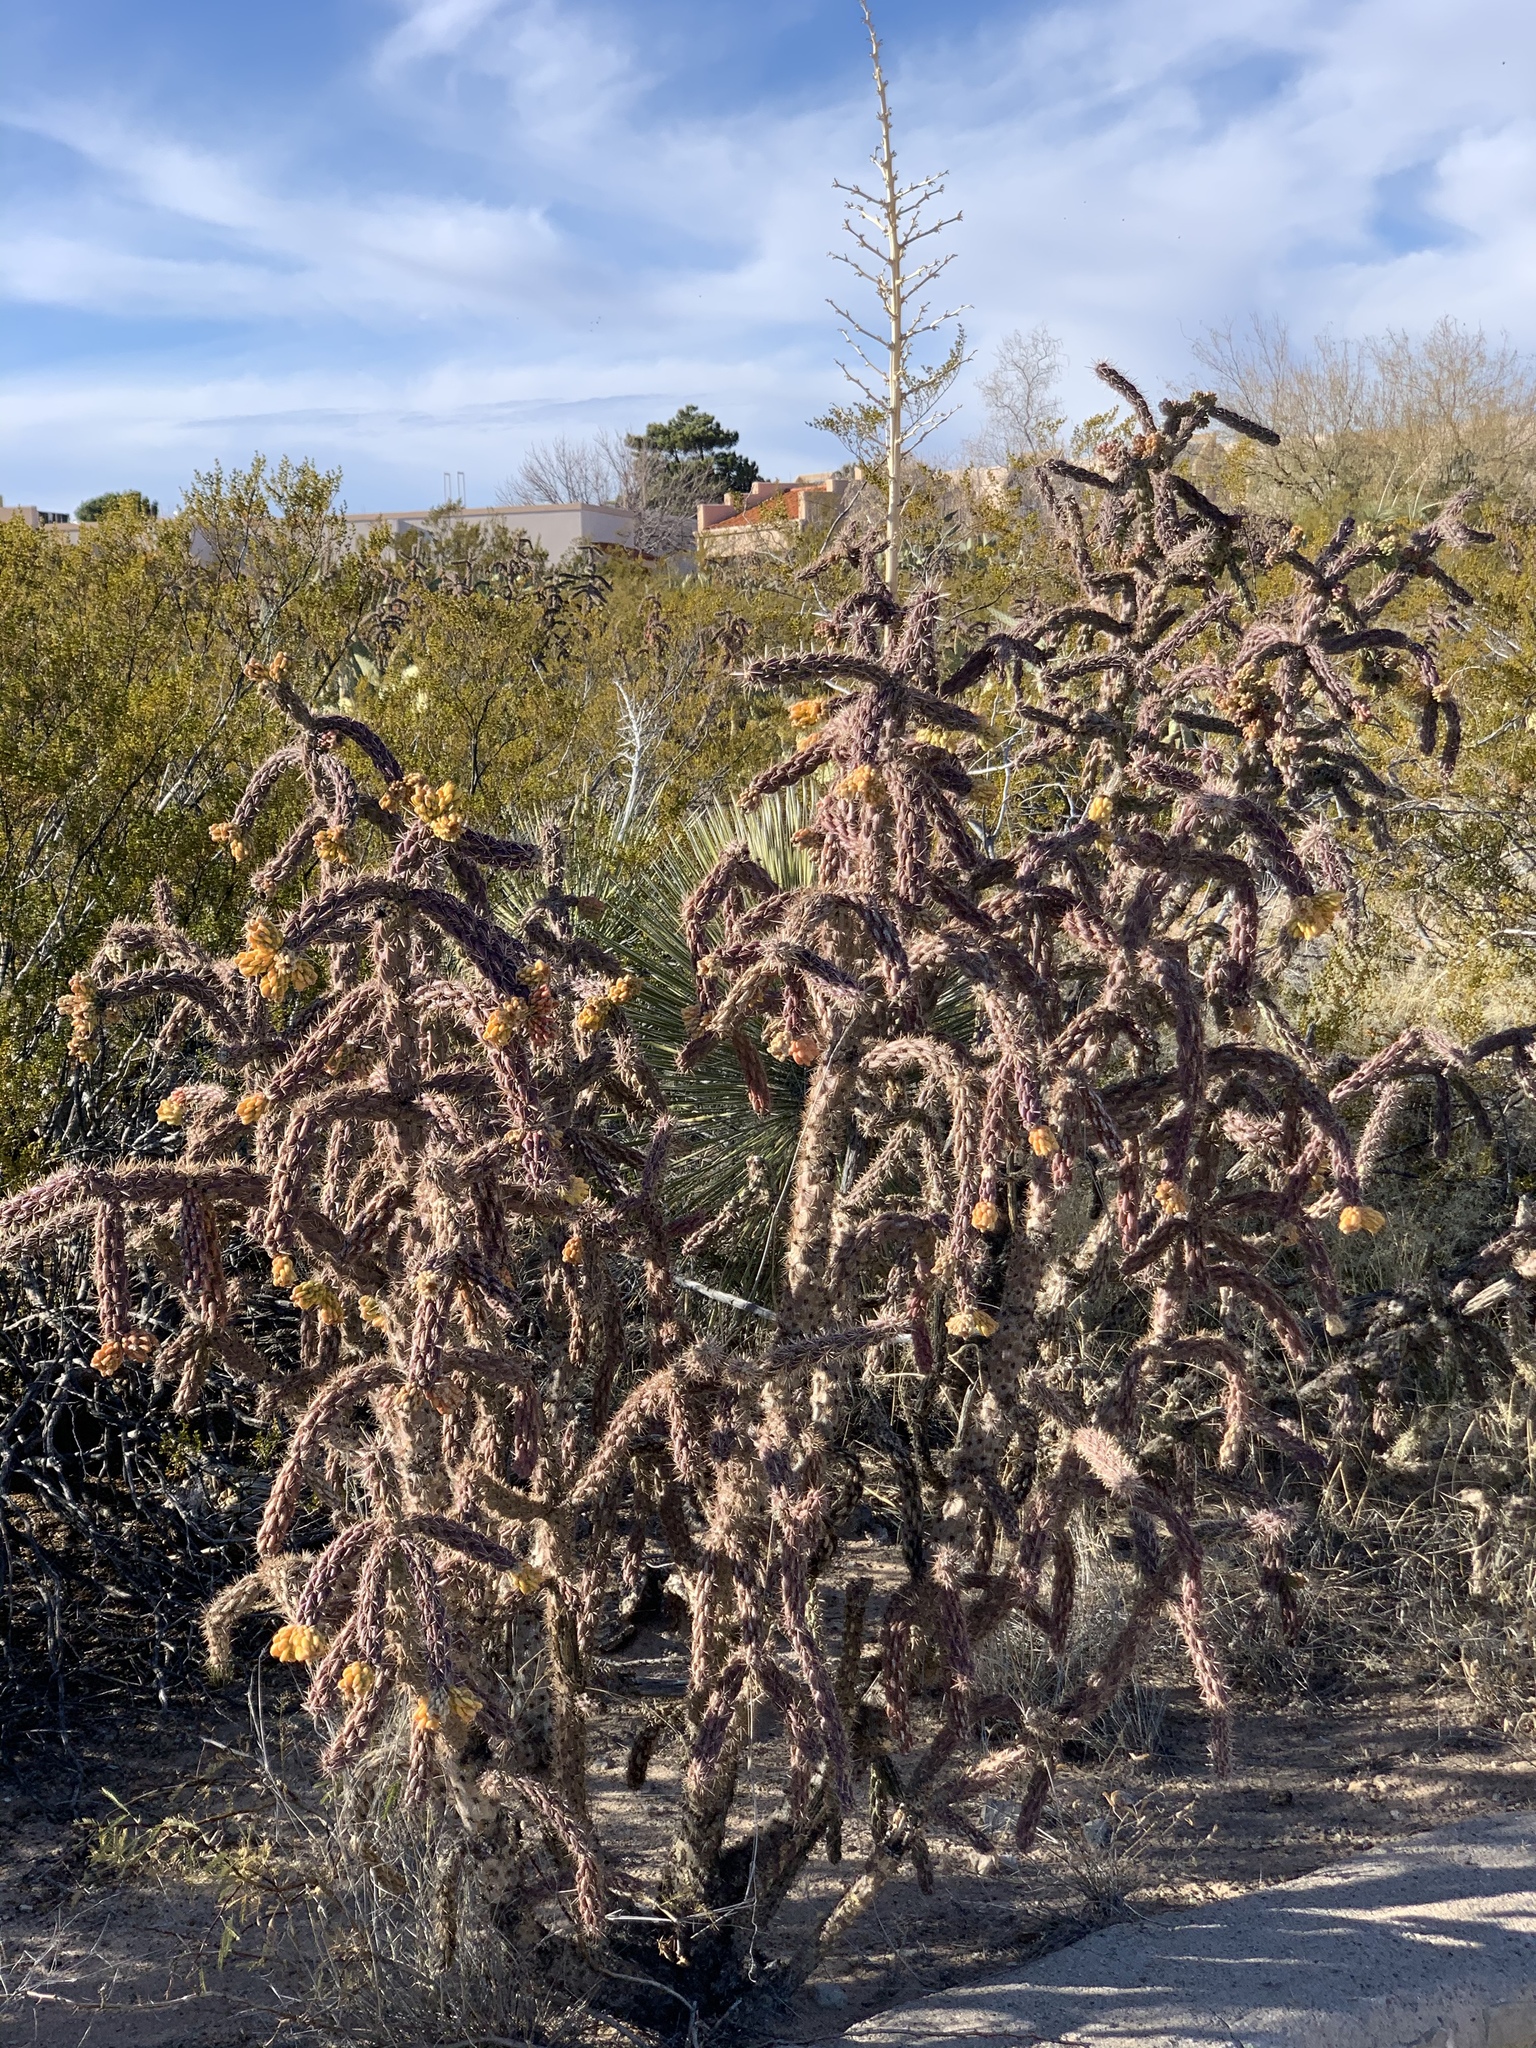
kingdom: Plantae
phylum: Tracheophyta
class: Magnoliopsida
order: Caryophyllales
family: Cactaceae
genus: Cylindropuntia
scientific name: Cylindropuntia imbricata
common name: Candelabrum cactus
